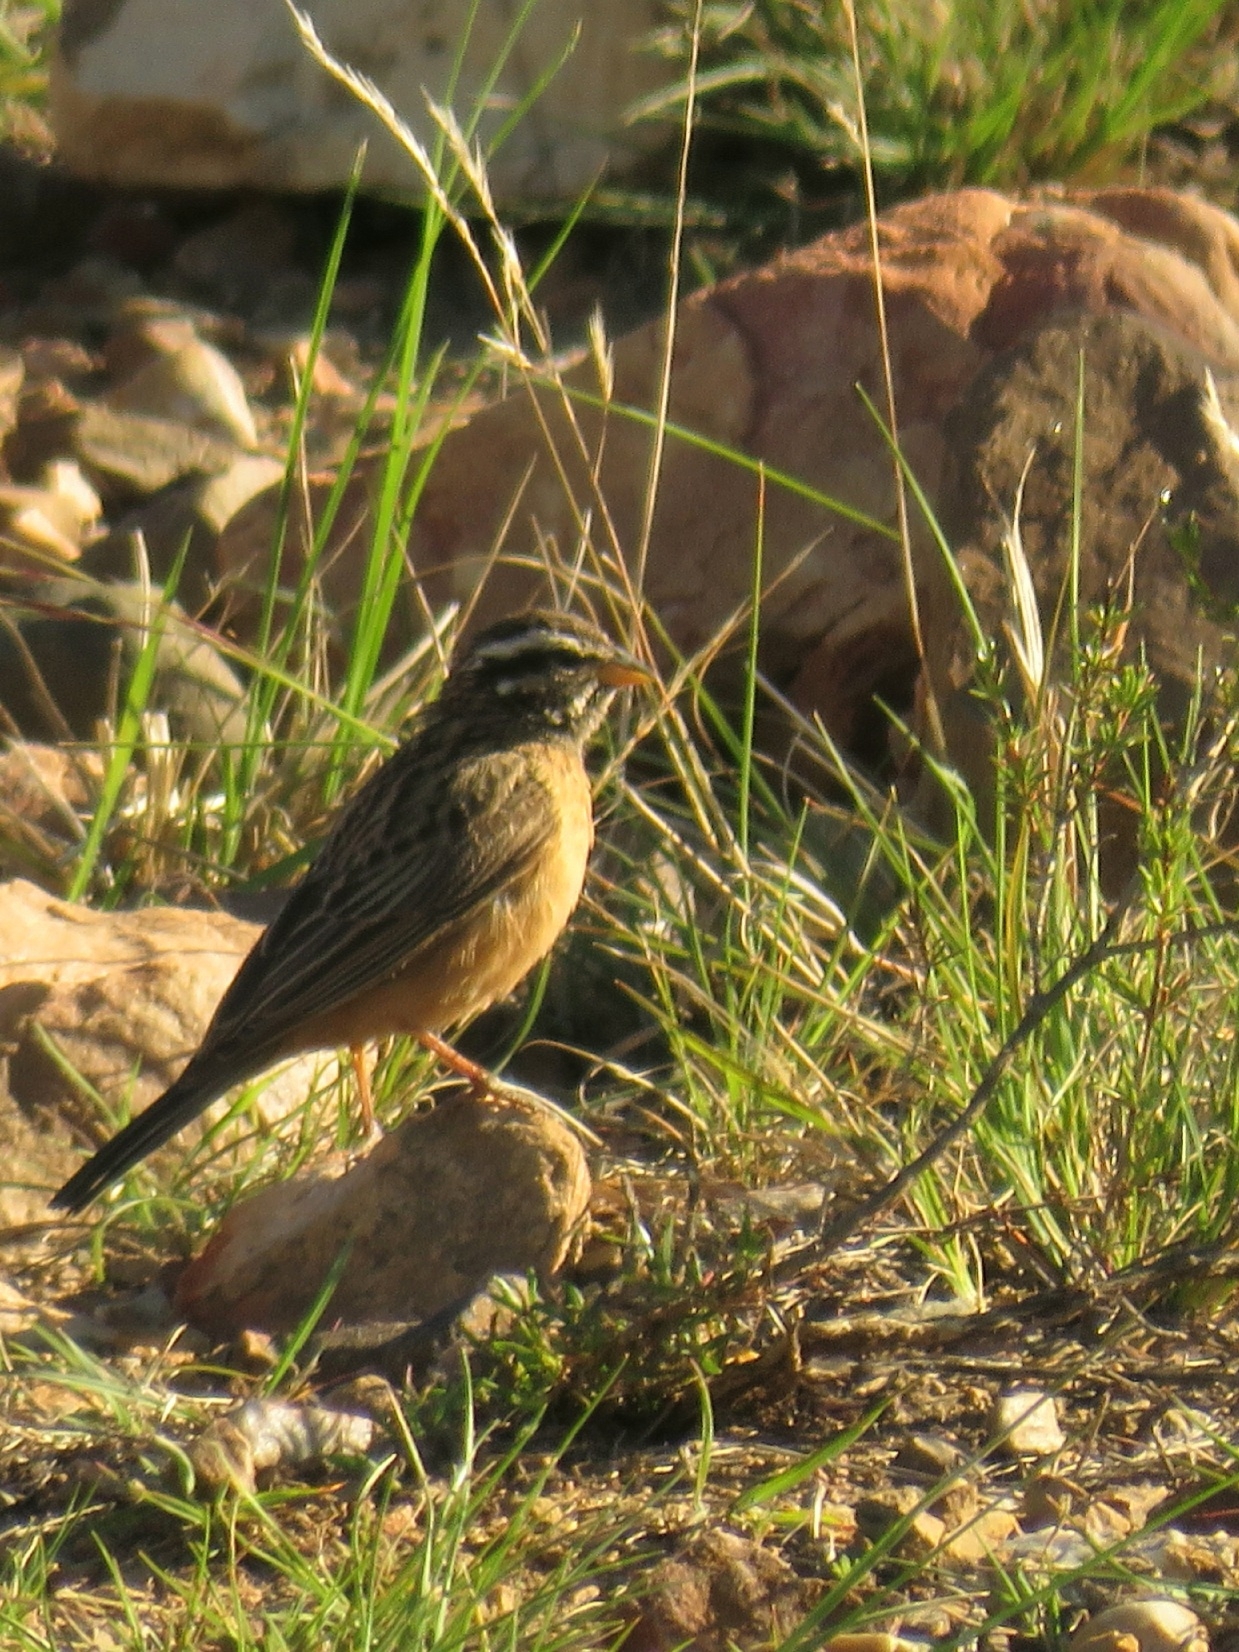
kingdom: Animalia
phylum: Chordata
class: Aves
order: Passeriformes
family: Emberizidae
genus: Emberiza
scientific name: Emberiza tahapisi
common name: Cinnamon-breasted bunting
